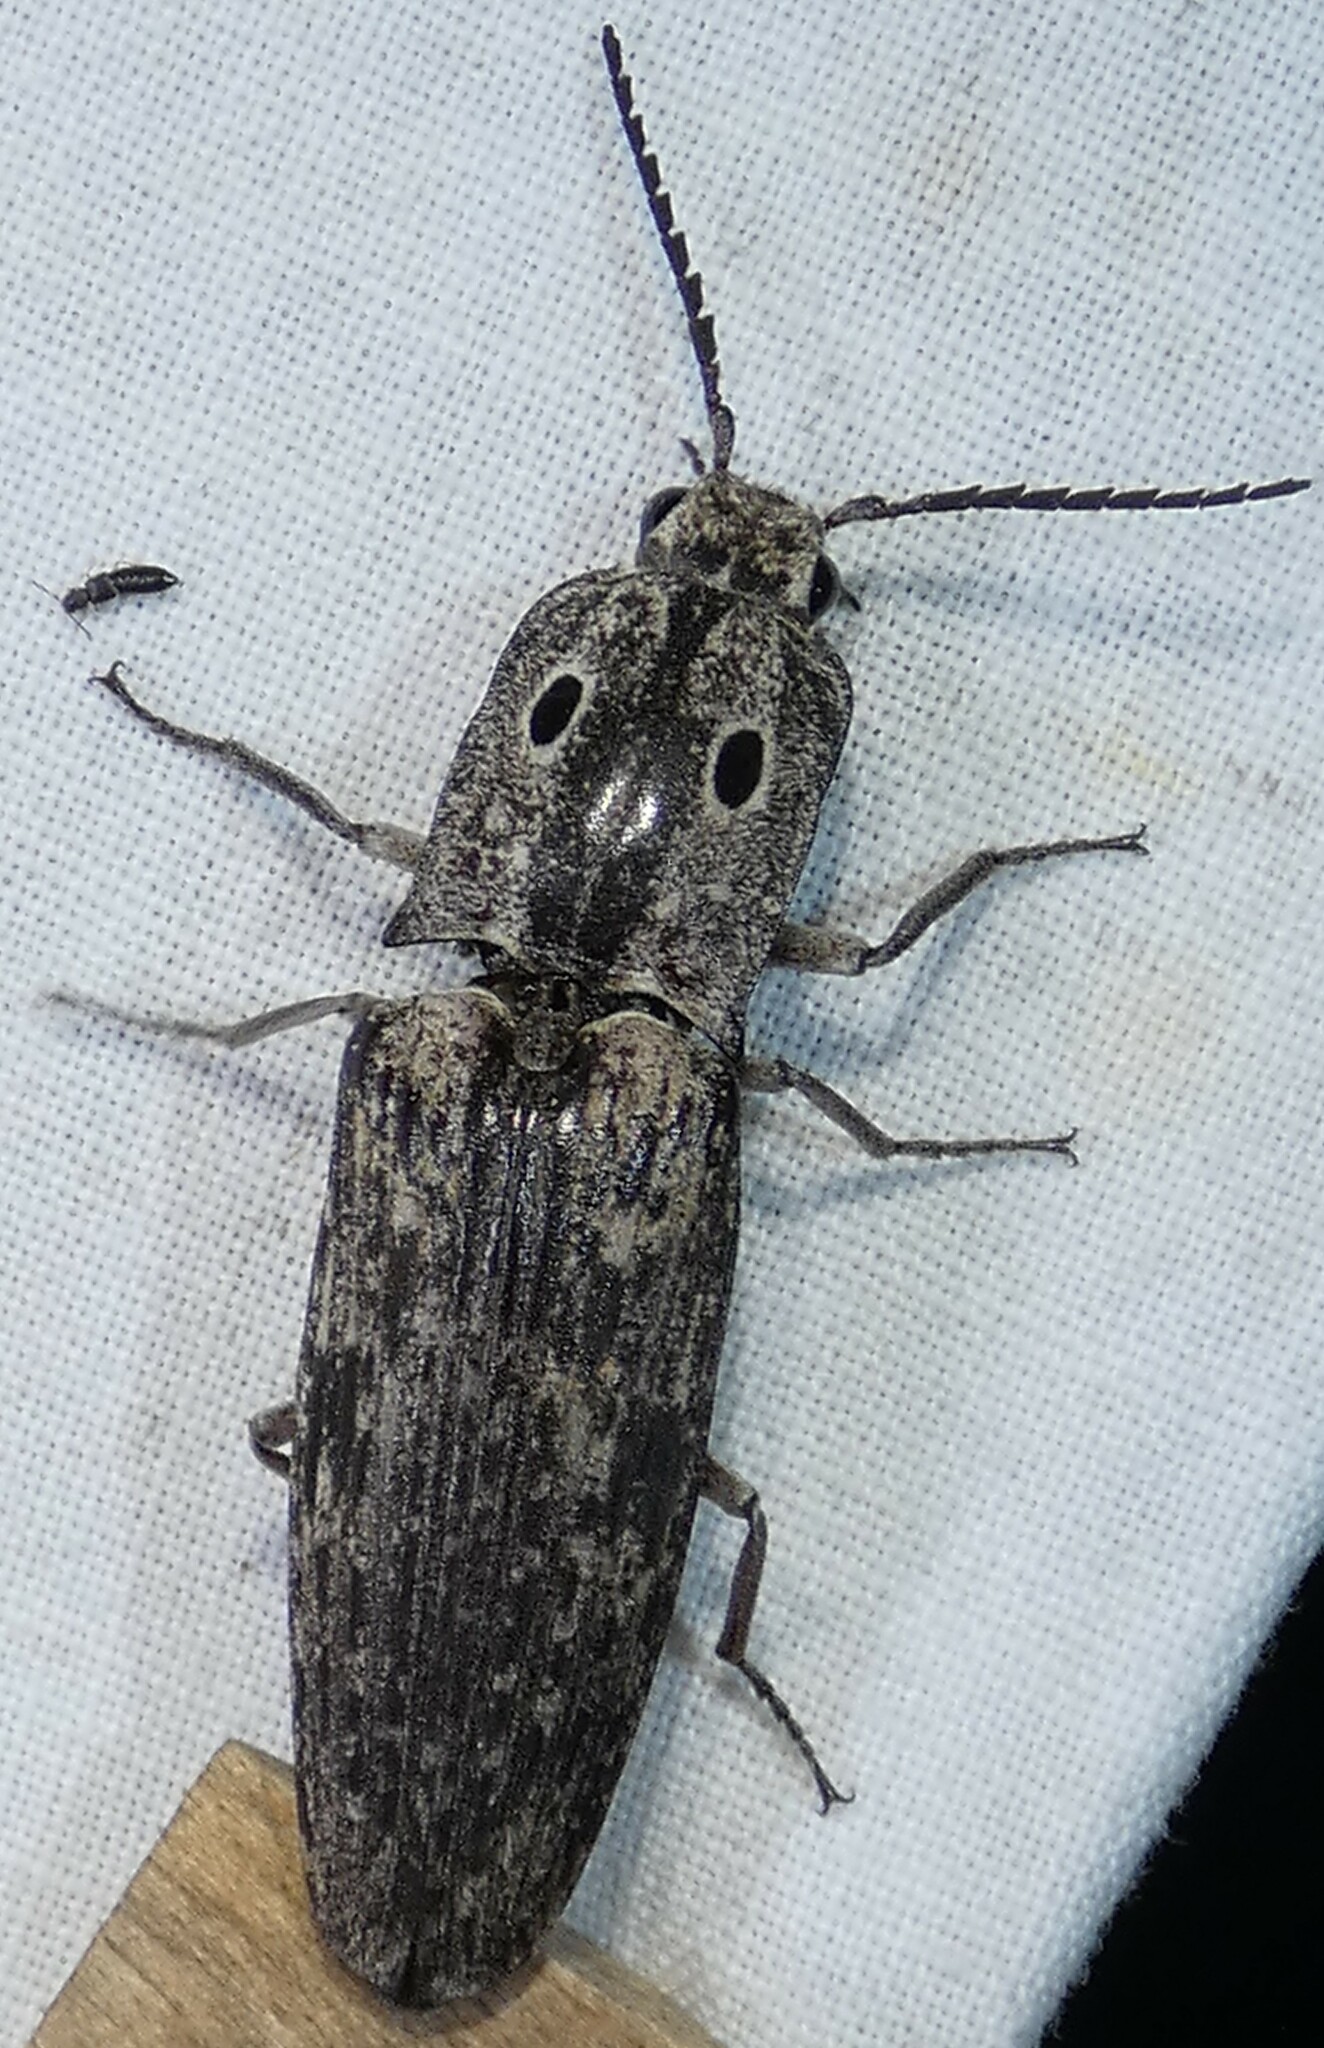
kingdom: Animalia
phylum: Arthropoda
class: Insecta
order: Coleoptera
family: Elateridae
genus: Alaus
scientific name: Alaus myops
